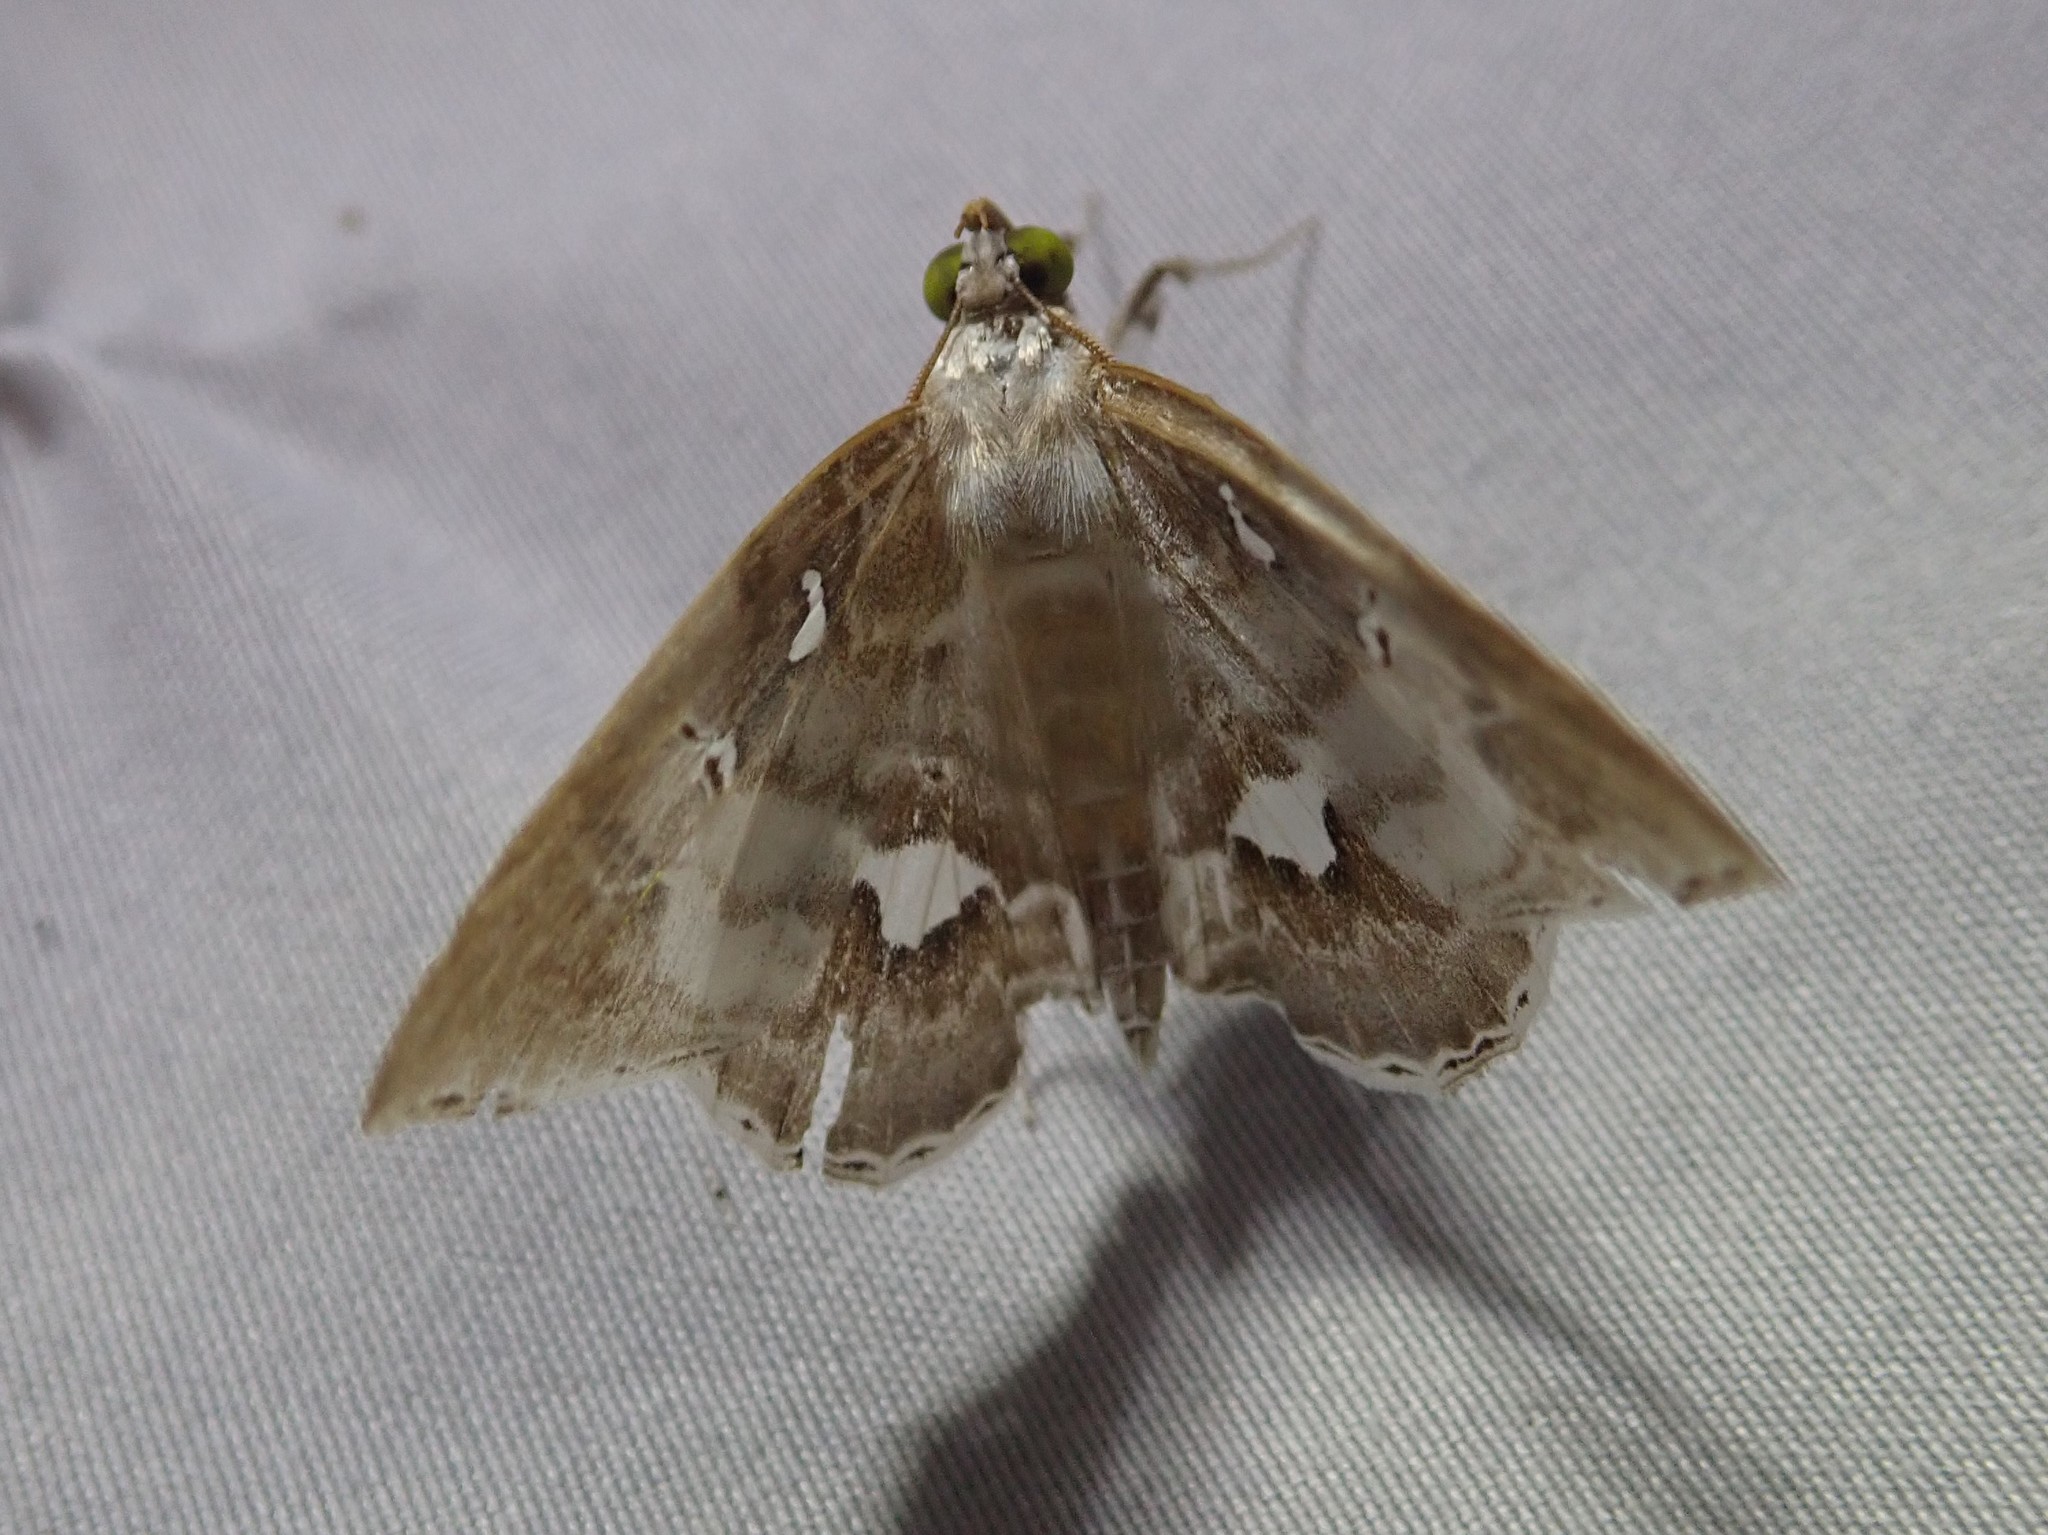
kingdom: Animalia
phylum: Arthropoda
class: Insecta
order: Lepidoptera
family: Erebidae
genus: Macrodes
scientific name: Macrodes columbalis
